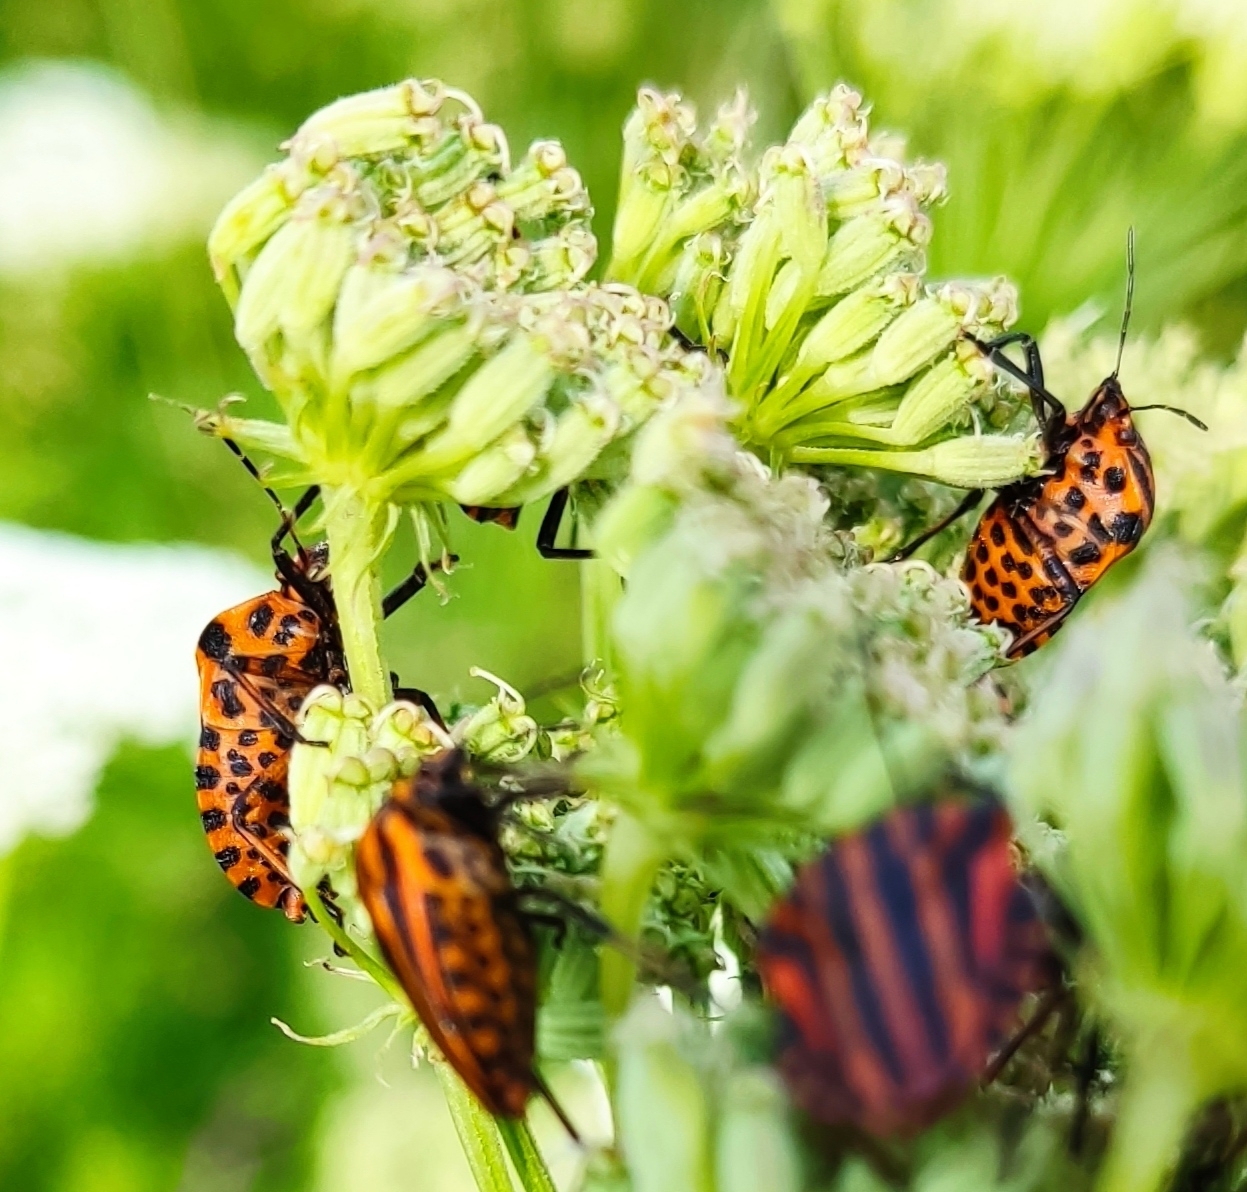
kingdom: Animalia
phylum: Arthropoda
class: Insecta
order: Hemiptera
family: Pentatomidae
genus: Graphosoma
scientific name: Graphosoma italicum
